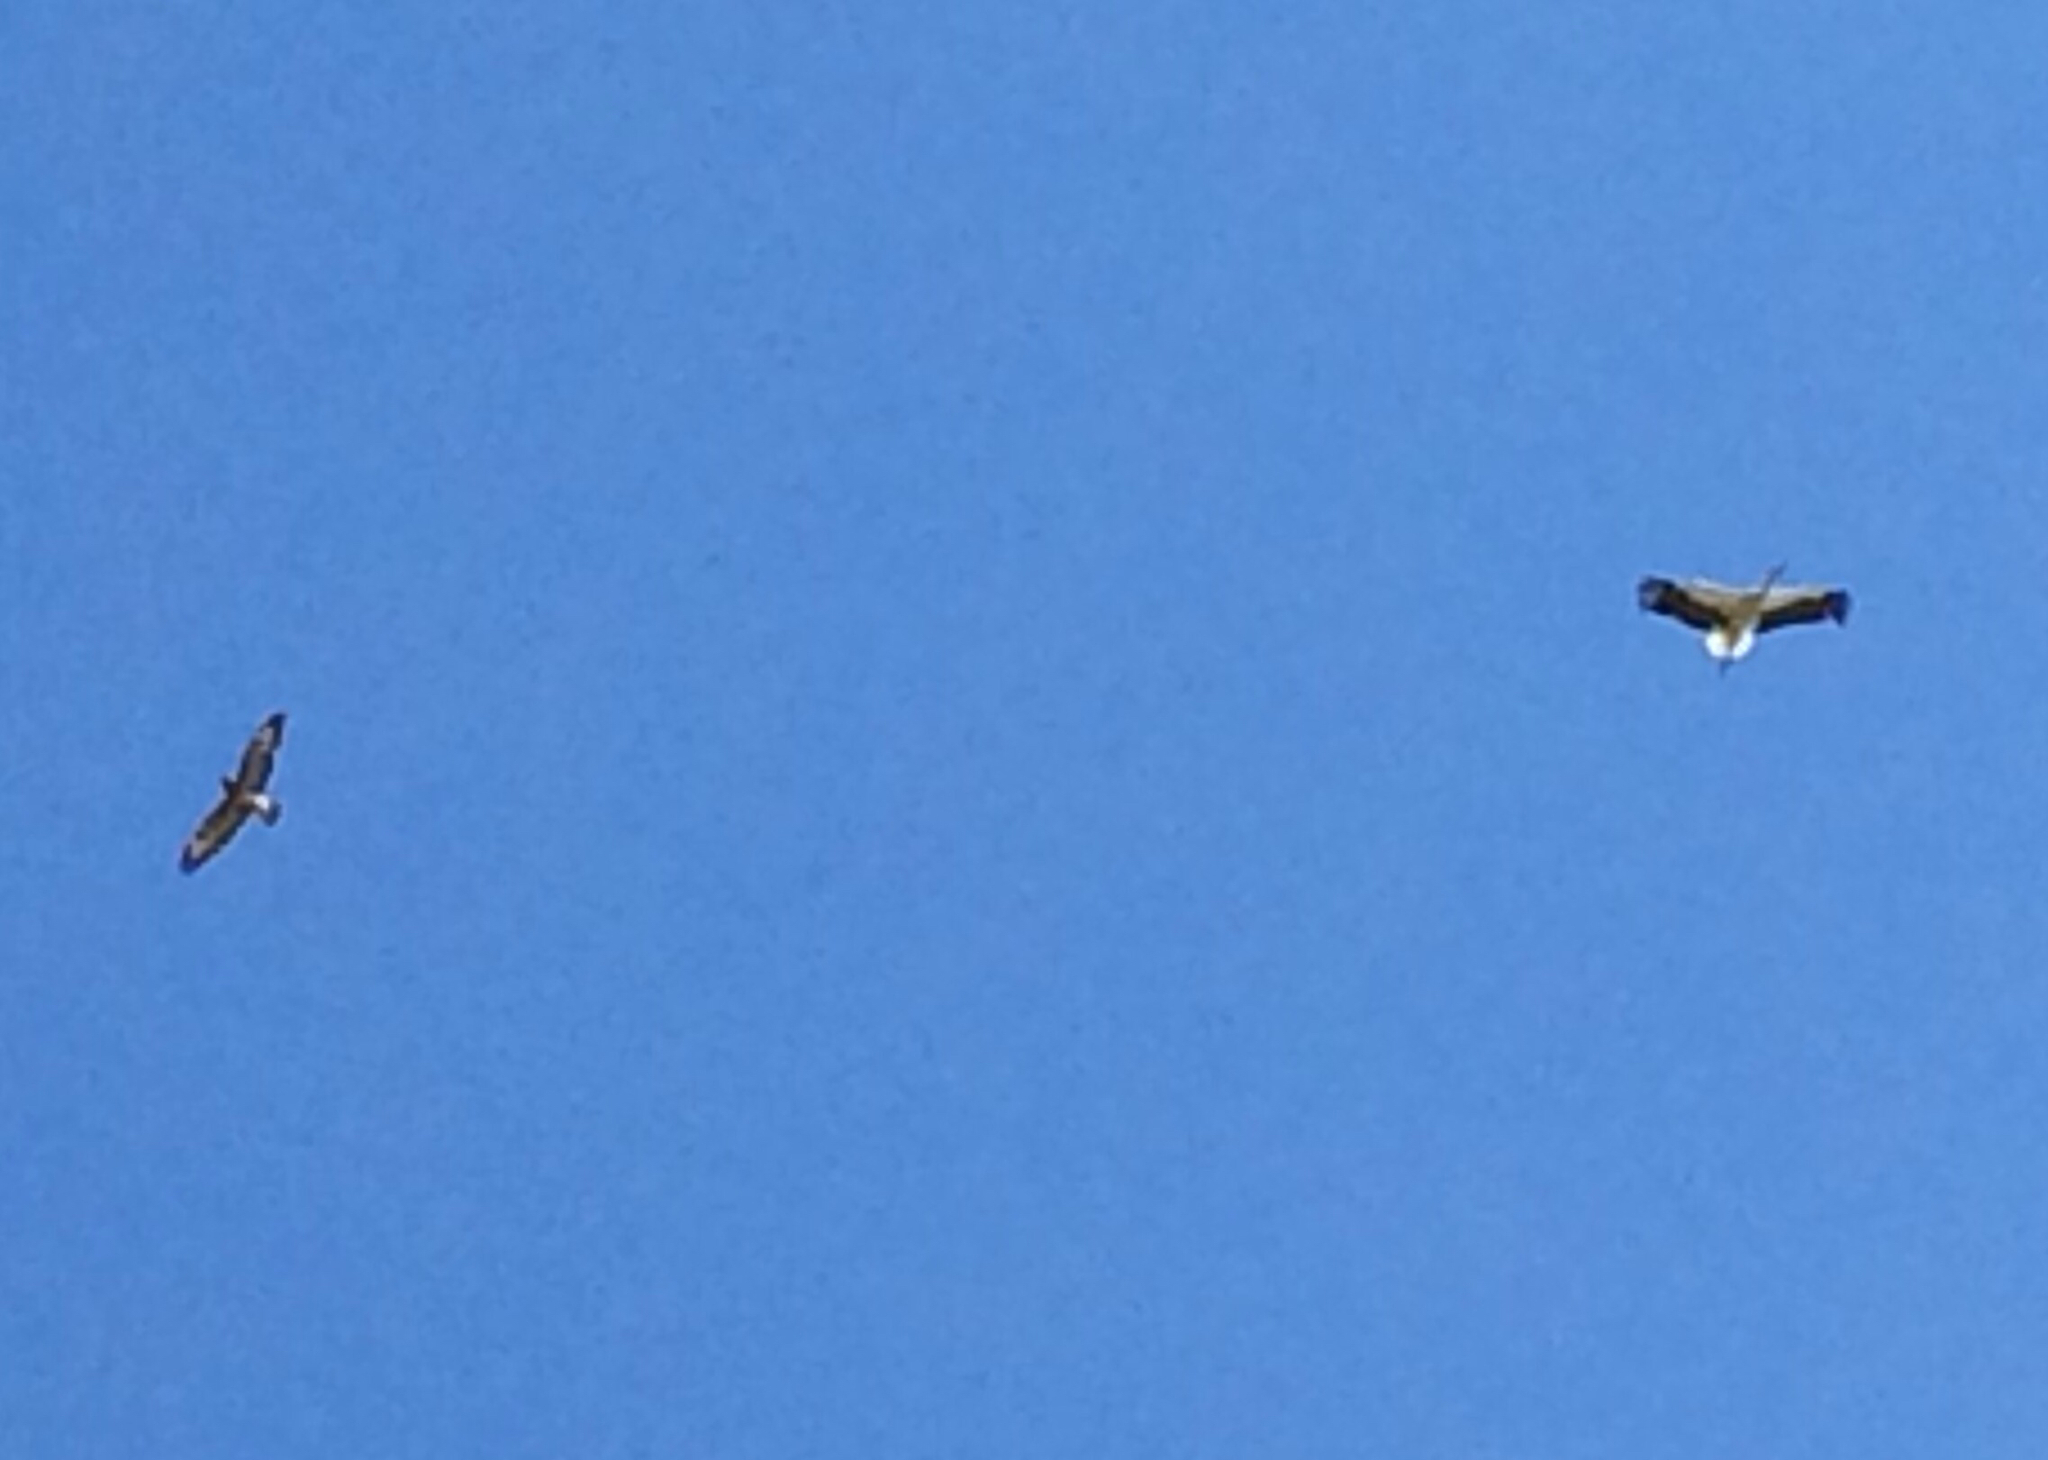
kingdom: Animalia
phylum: Chordata
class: Aves
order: Accipitriformes
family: Accipitridae
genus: Buteo
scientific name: Buteo buteo
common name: Common buzzard
